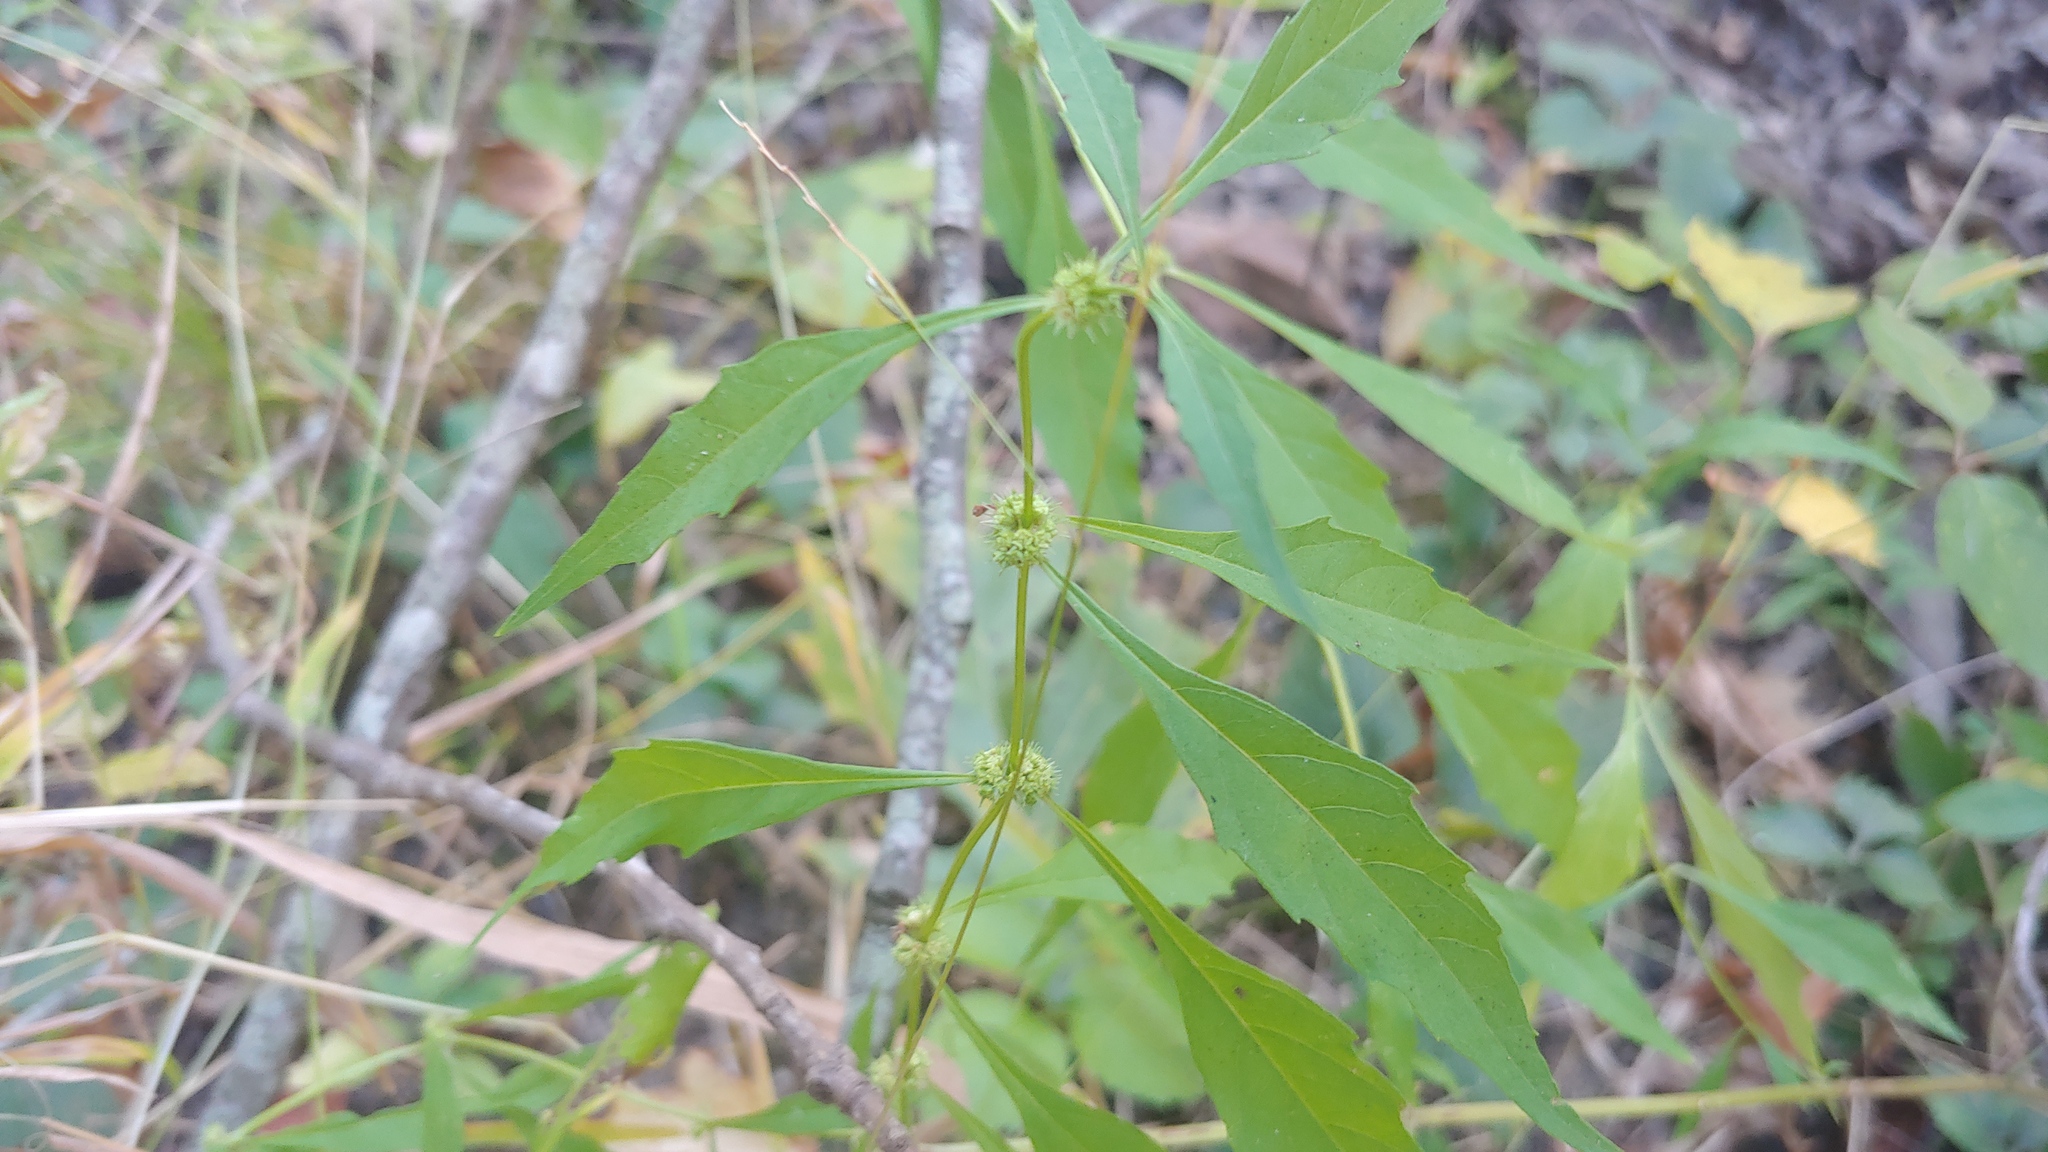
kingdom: Plantae
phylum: Tracheophyta
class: Magnoliopsida
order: Lamiales
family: Lamiaceae
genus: Lycopus
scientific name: Lycopus rubellus
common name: Stalked bugleweed
